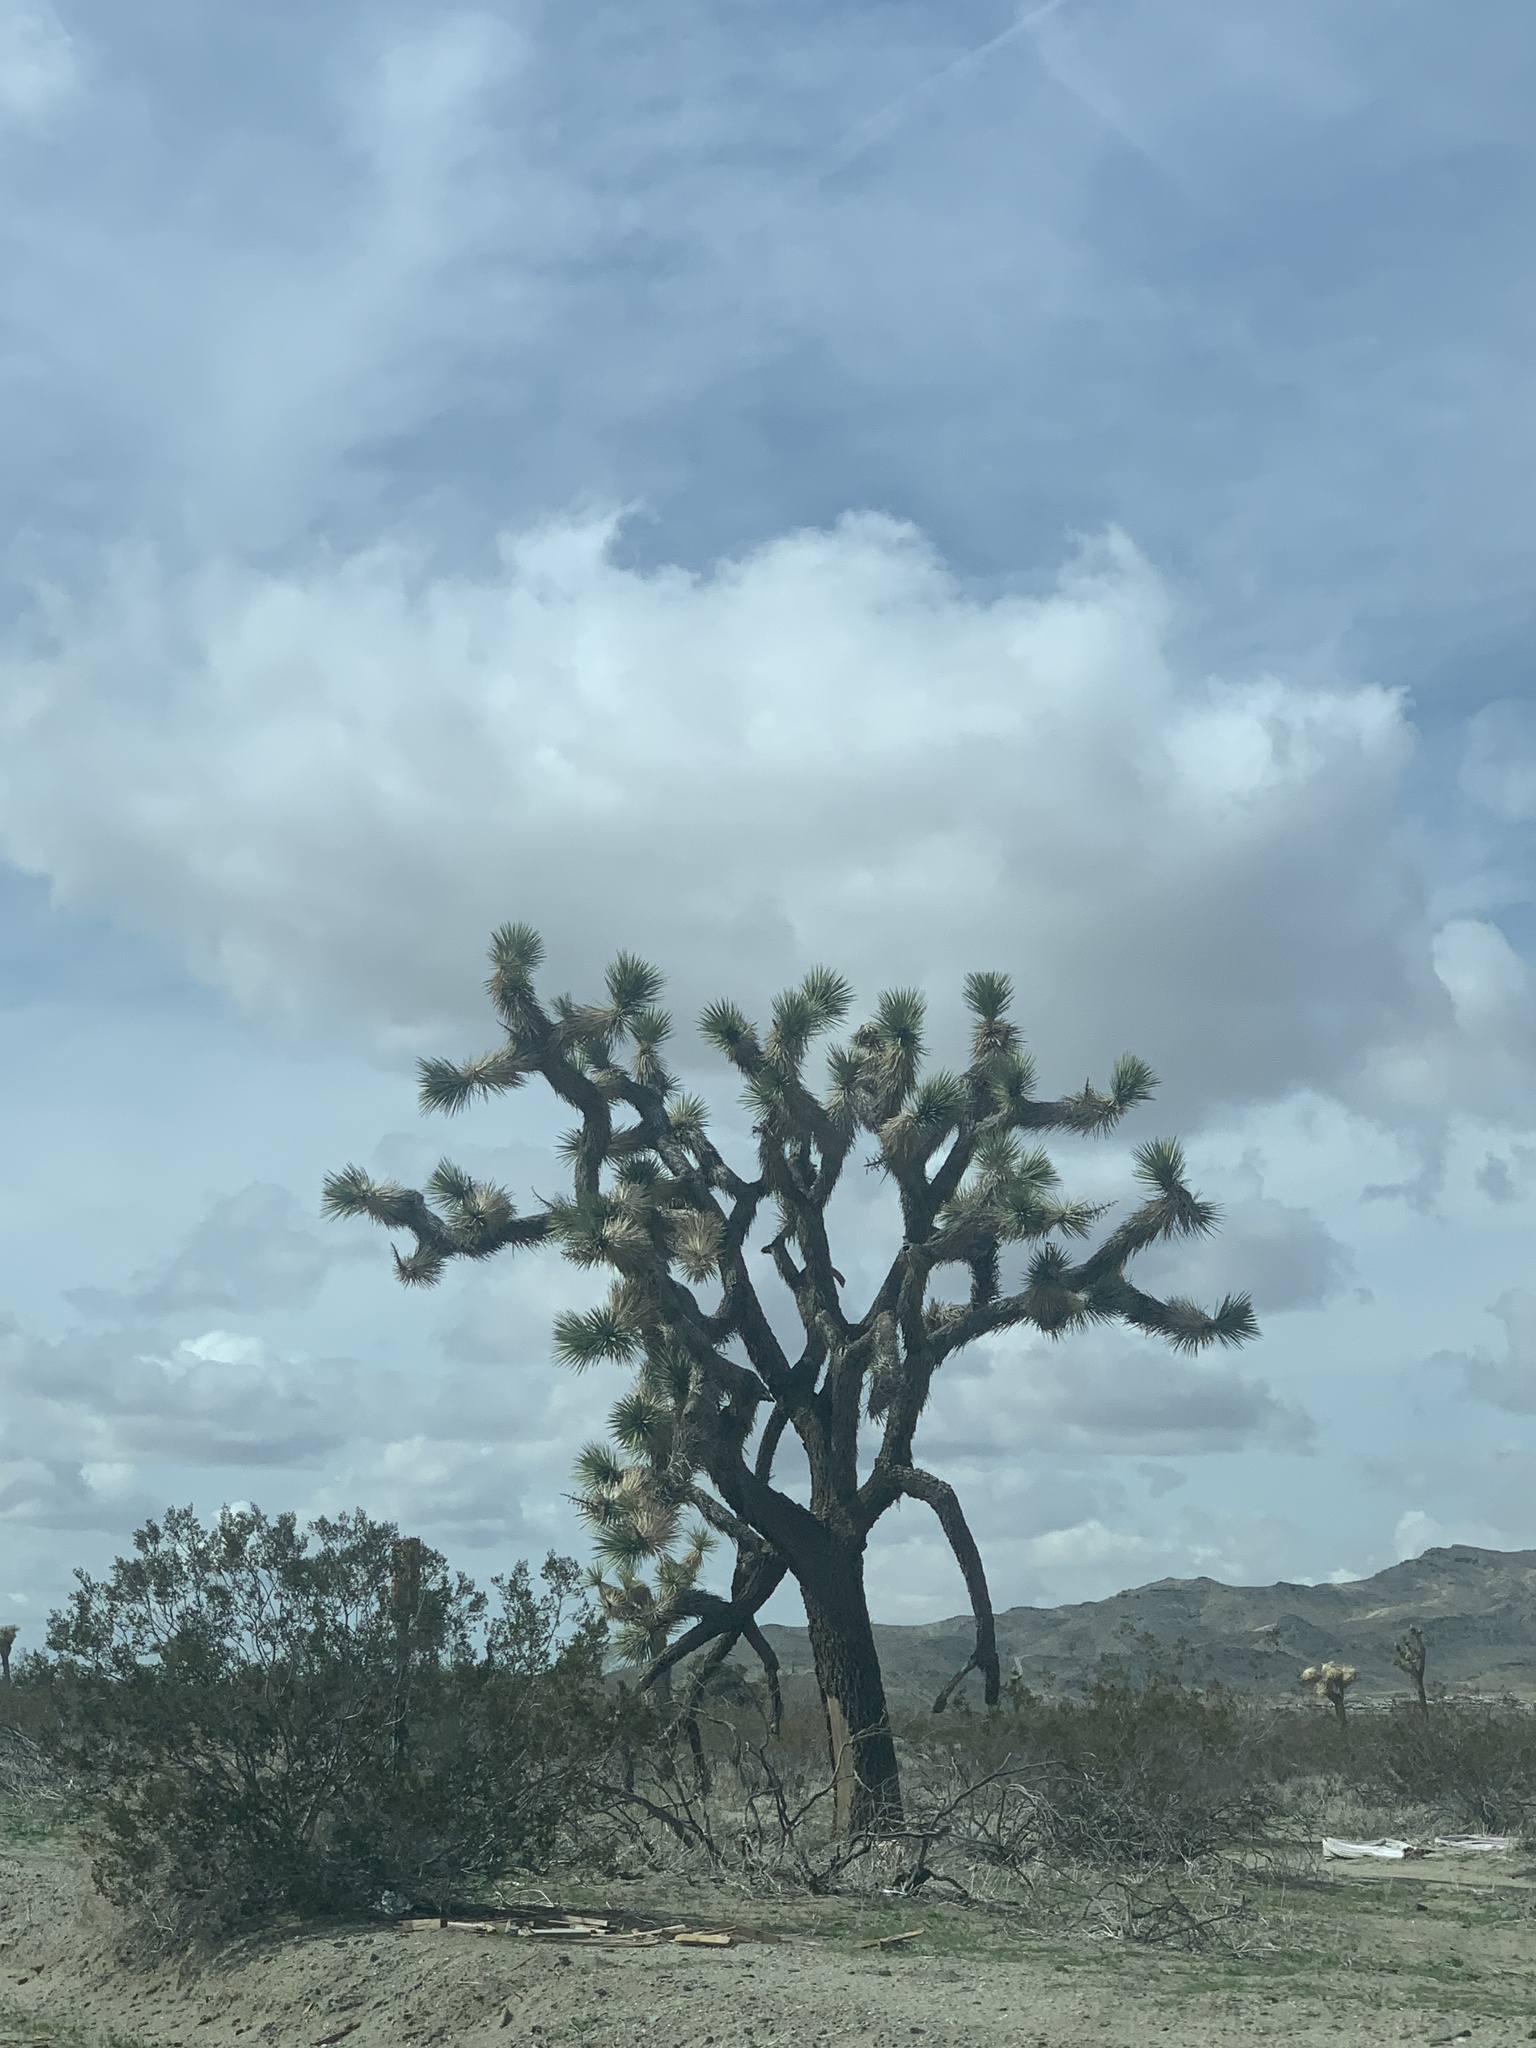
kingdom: Plantae
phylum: Tracheophyta
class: Liliopsida
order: Asparagales
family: Asparagaceae
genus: Yucca
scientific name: Yucca brevifolia
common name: Joshua tree
